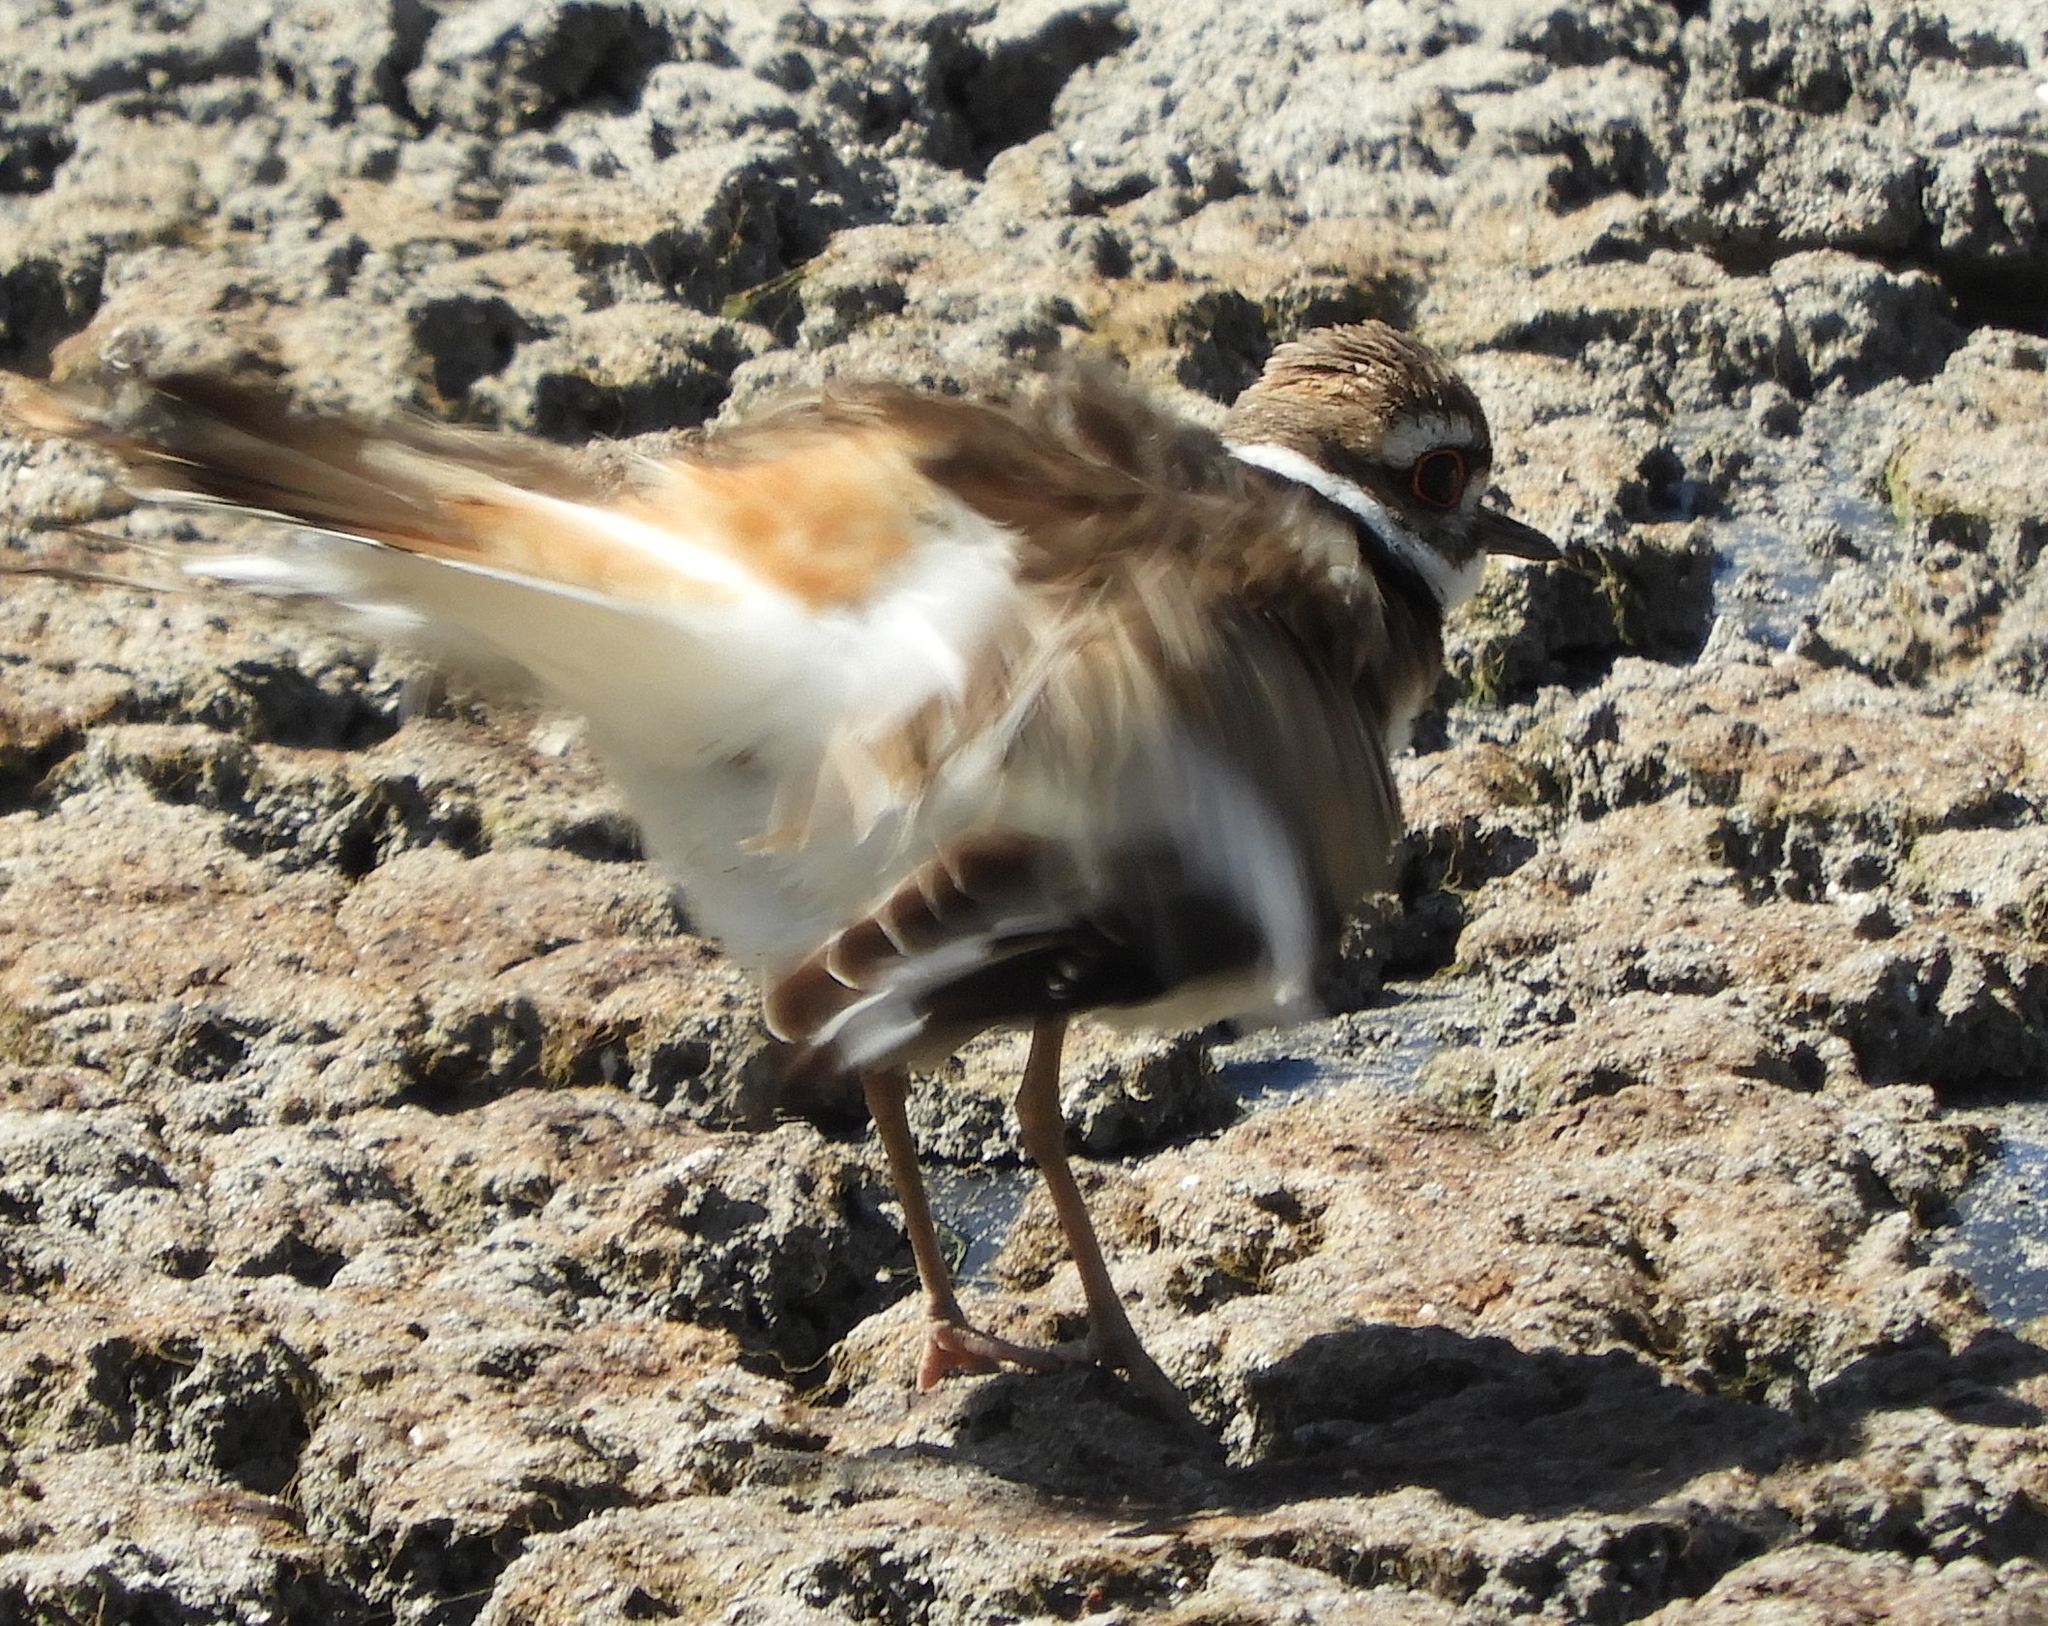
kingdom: Animalia
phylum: Chordata
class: Aves
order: Charadriiformes
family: Charadriidae
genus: Charadrius
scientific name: Charadrius vociferus
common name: Killdeer
